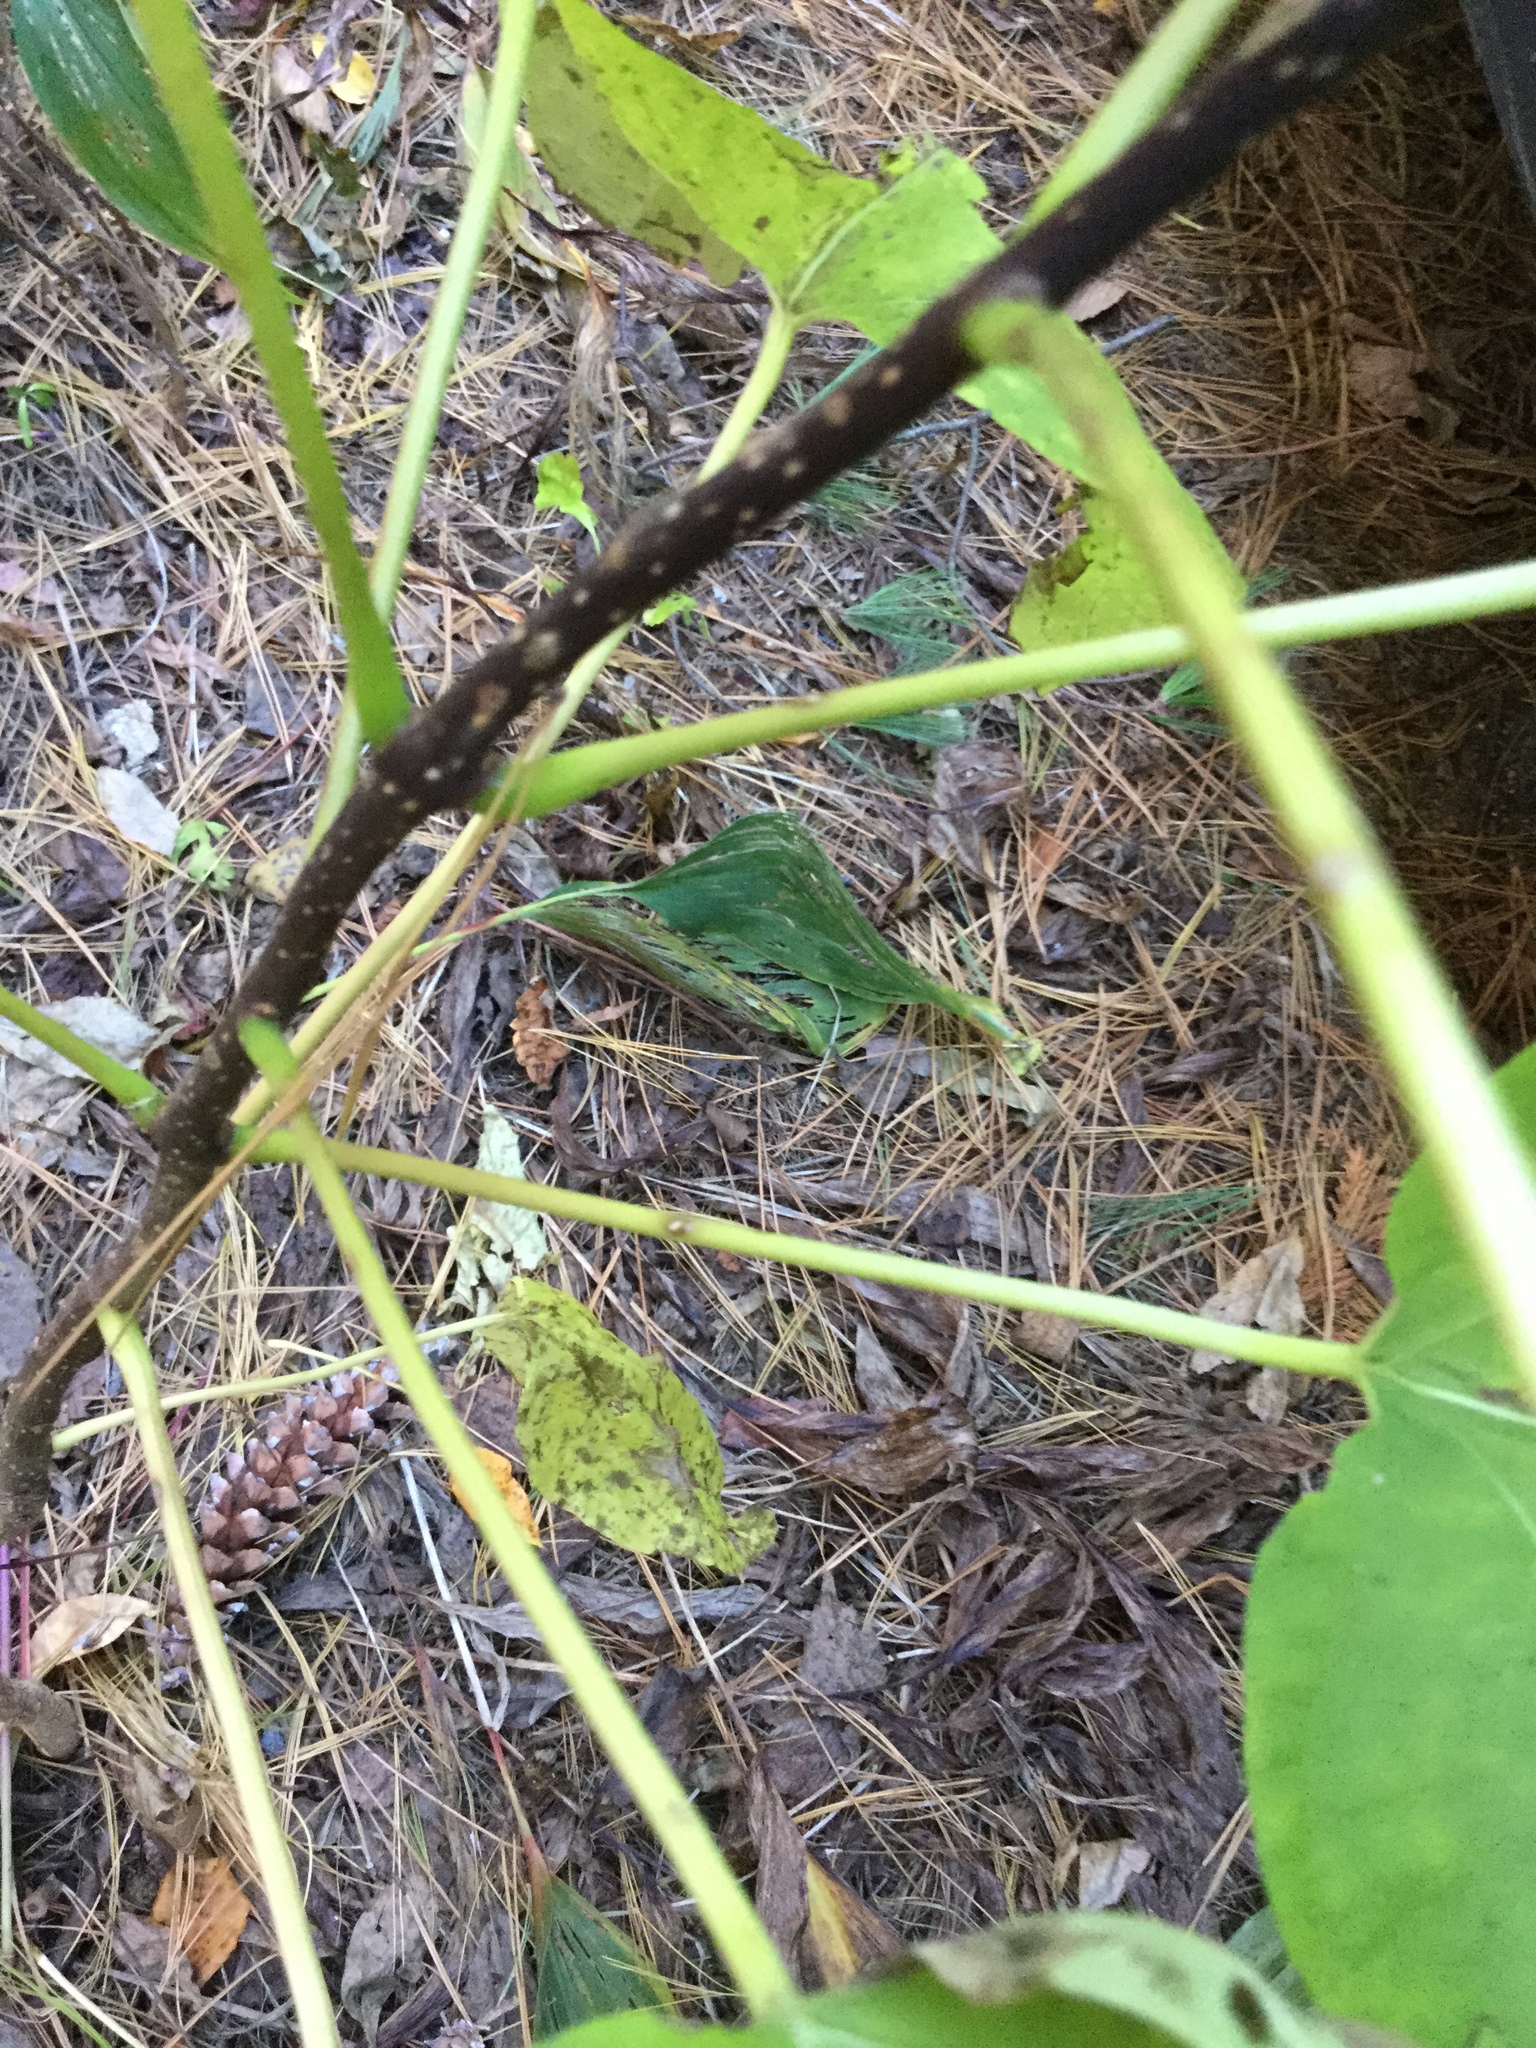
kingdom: Plantae
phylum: Tracheophyta
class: Magnoliopsida
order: Lamiales
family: Bignoniaceae
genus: Catalpa
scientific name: Catalpa speciosa
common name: Northern catalpa
